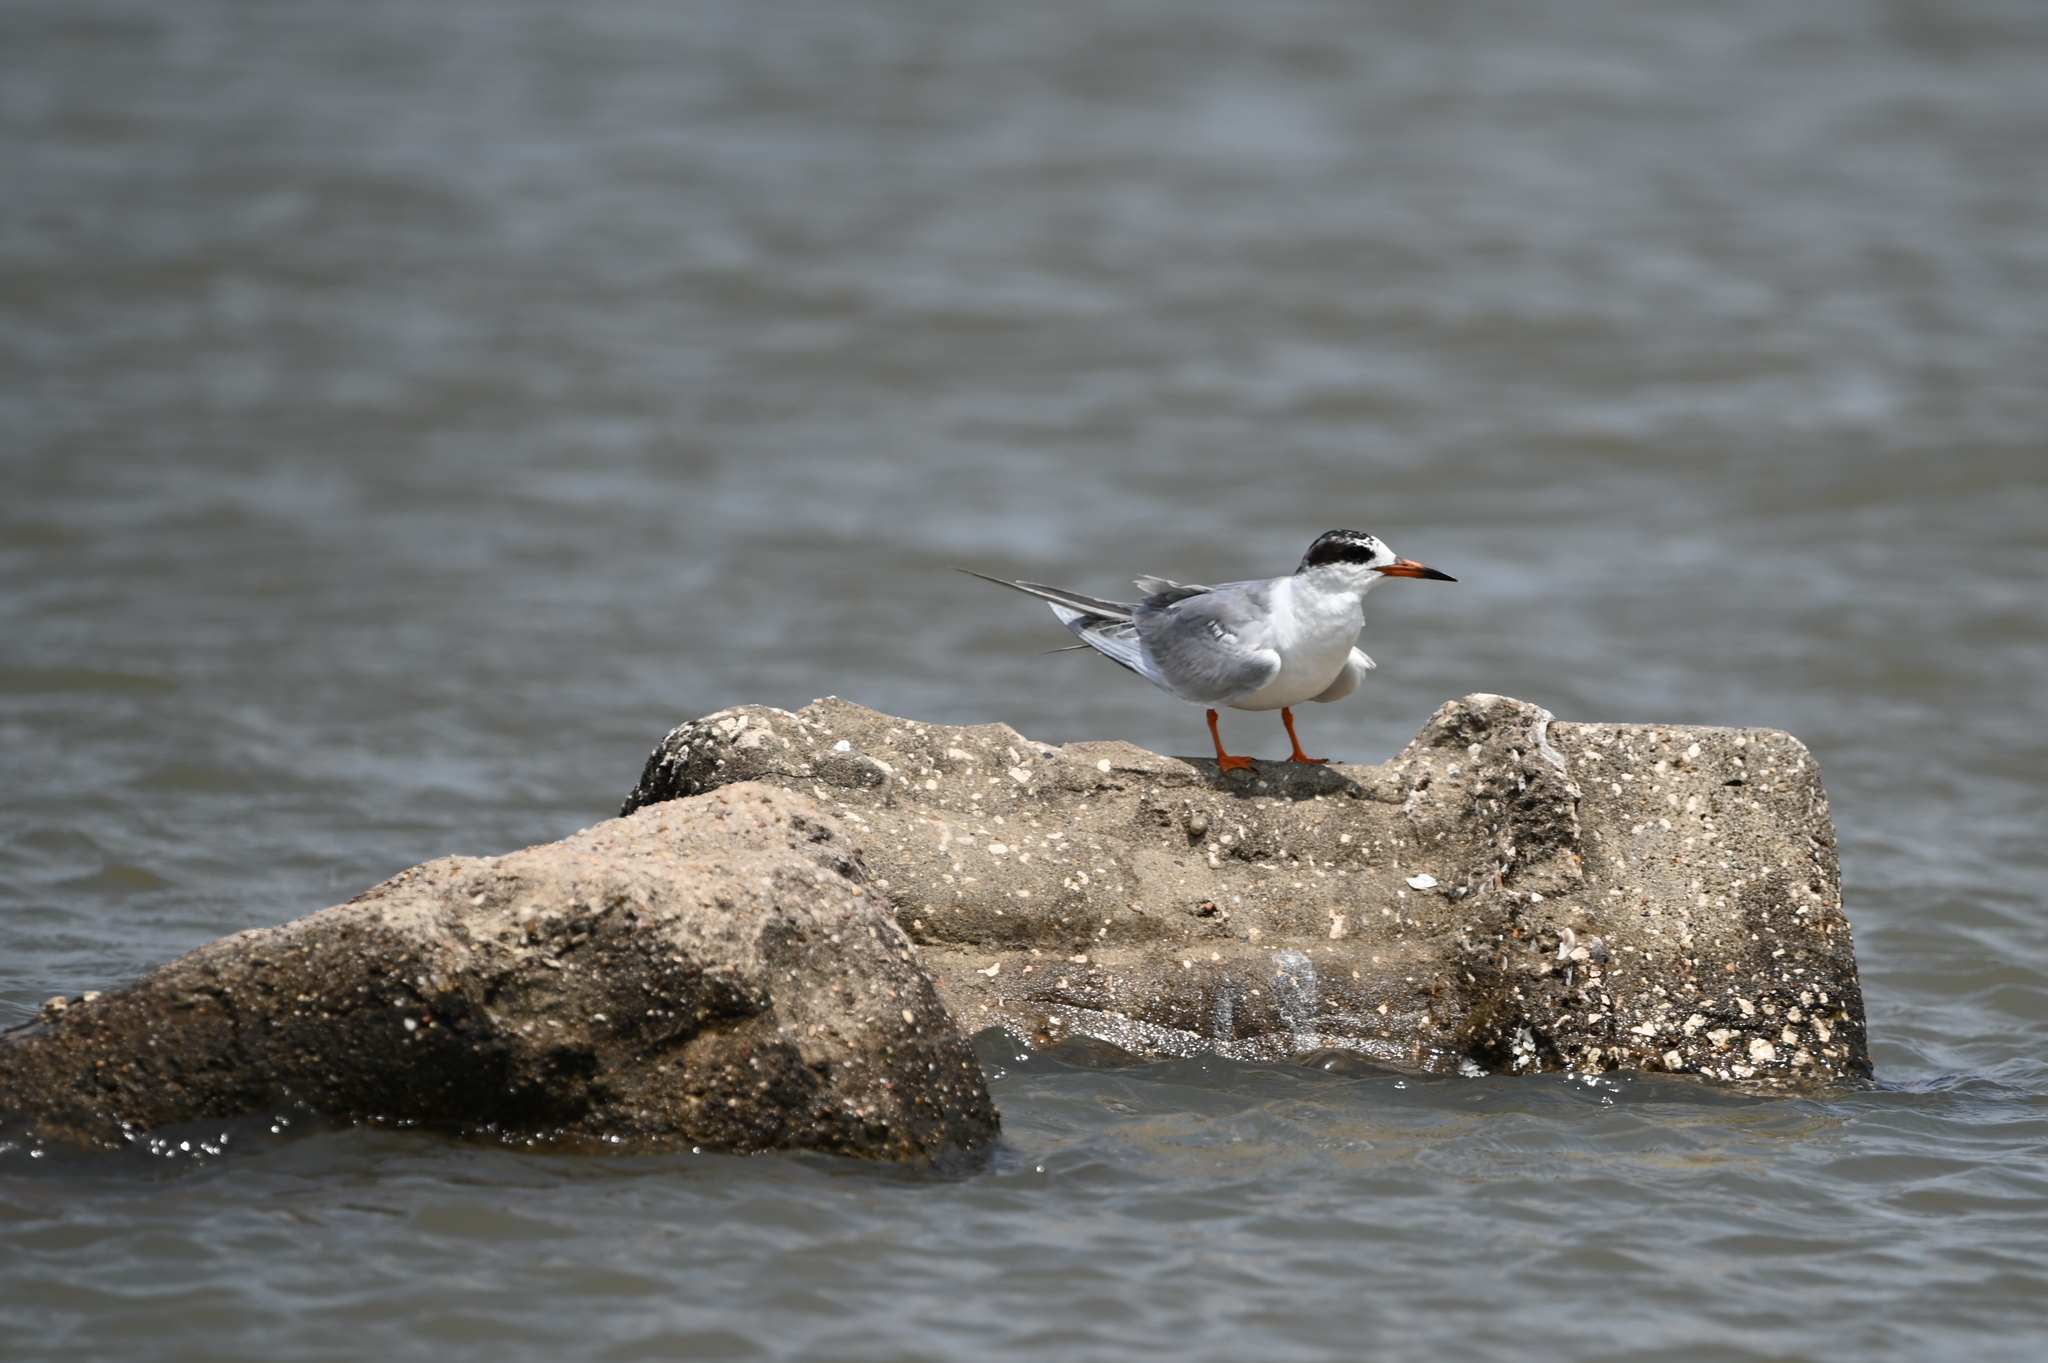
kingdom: Animalia
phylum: Chordata
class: Aves
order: Charadriiformes
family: Laridae
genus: Sterna
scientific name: Sterna forsteri
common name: Forster's tern
